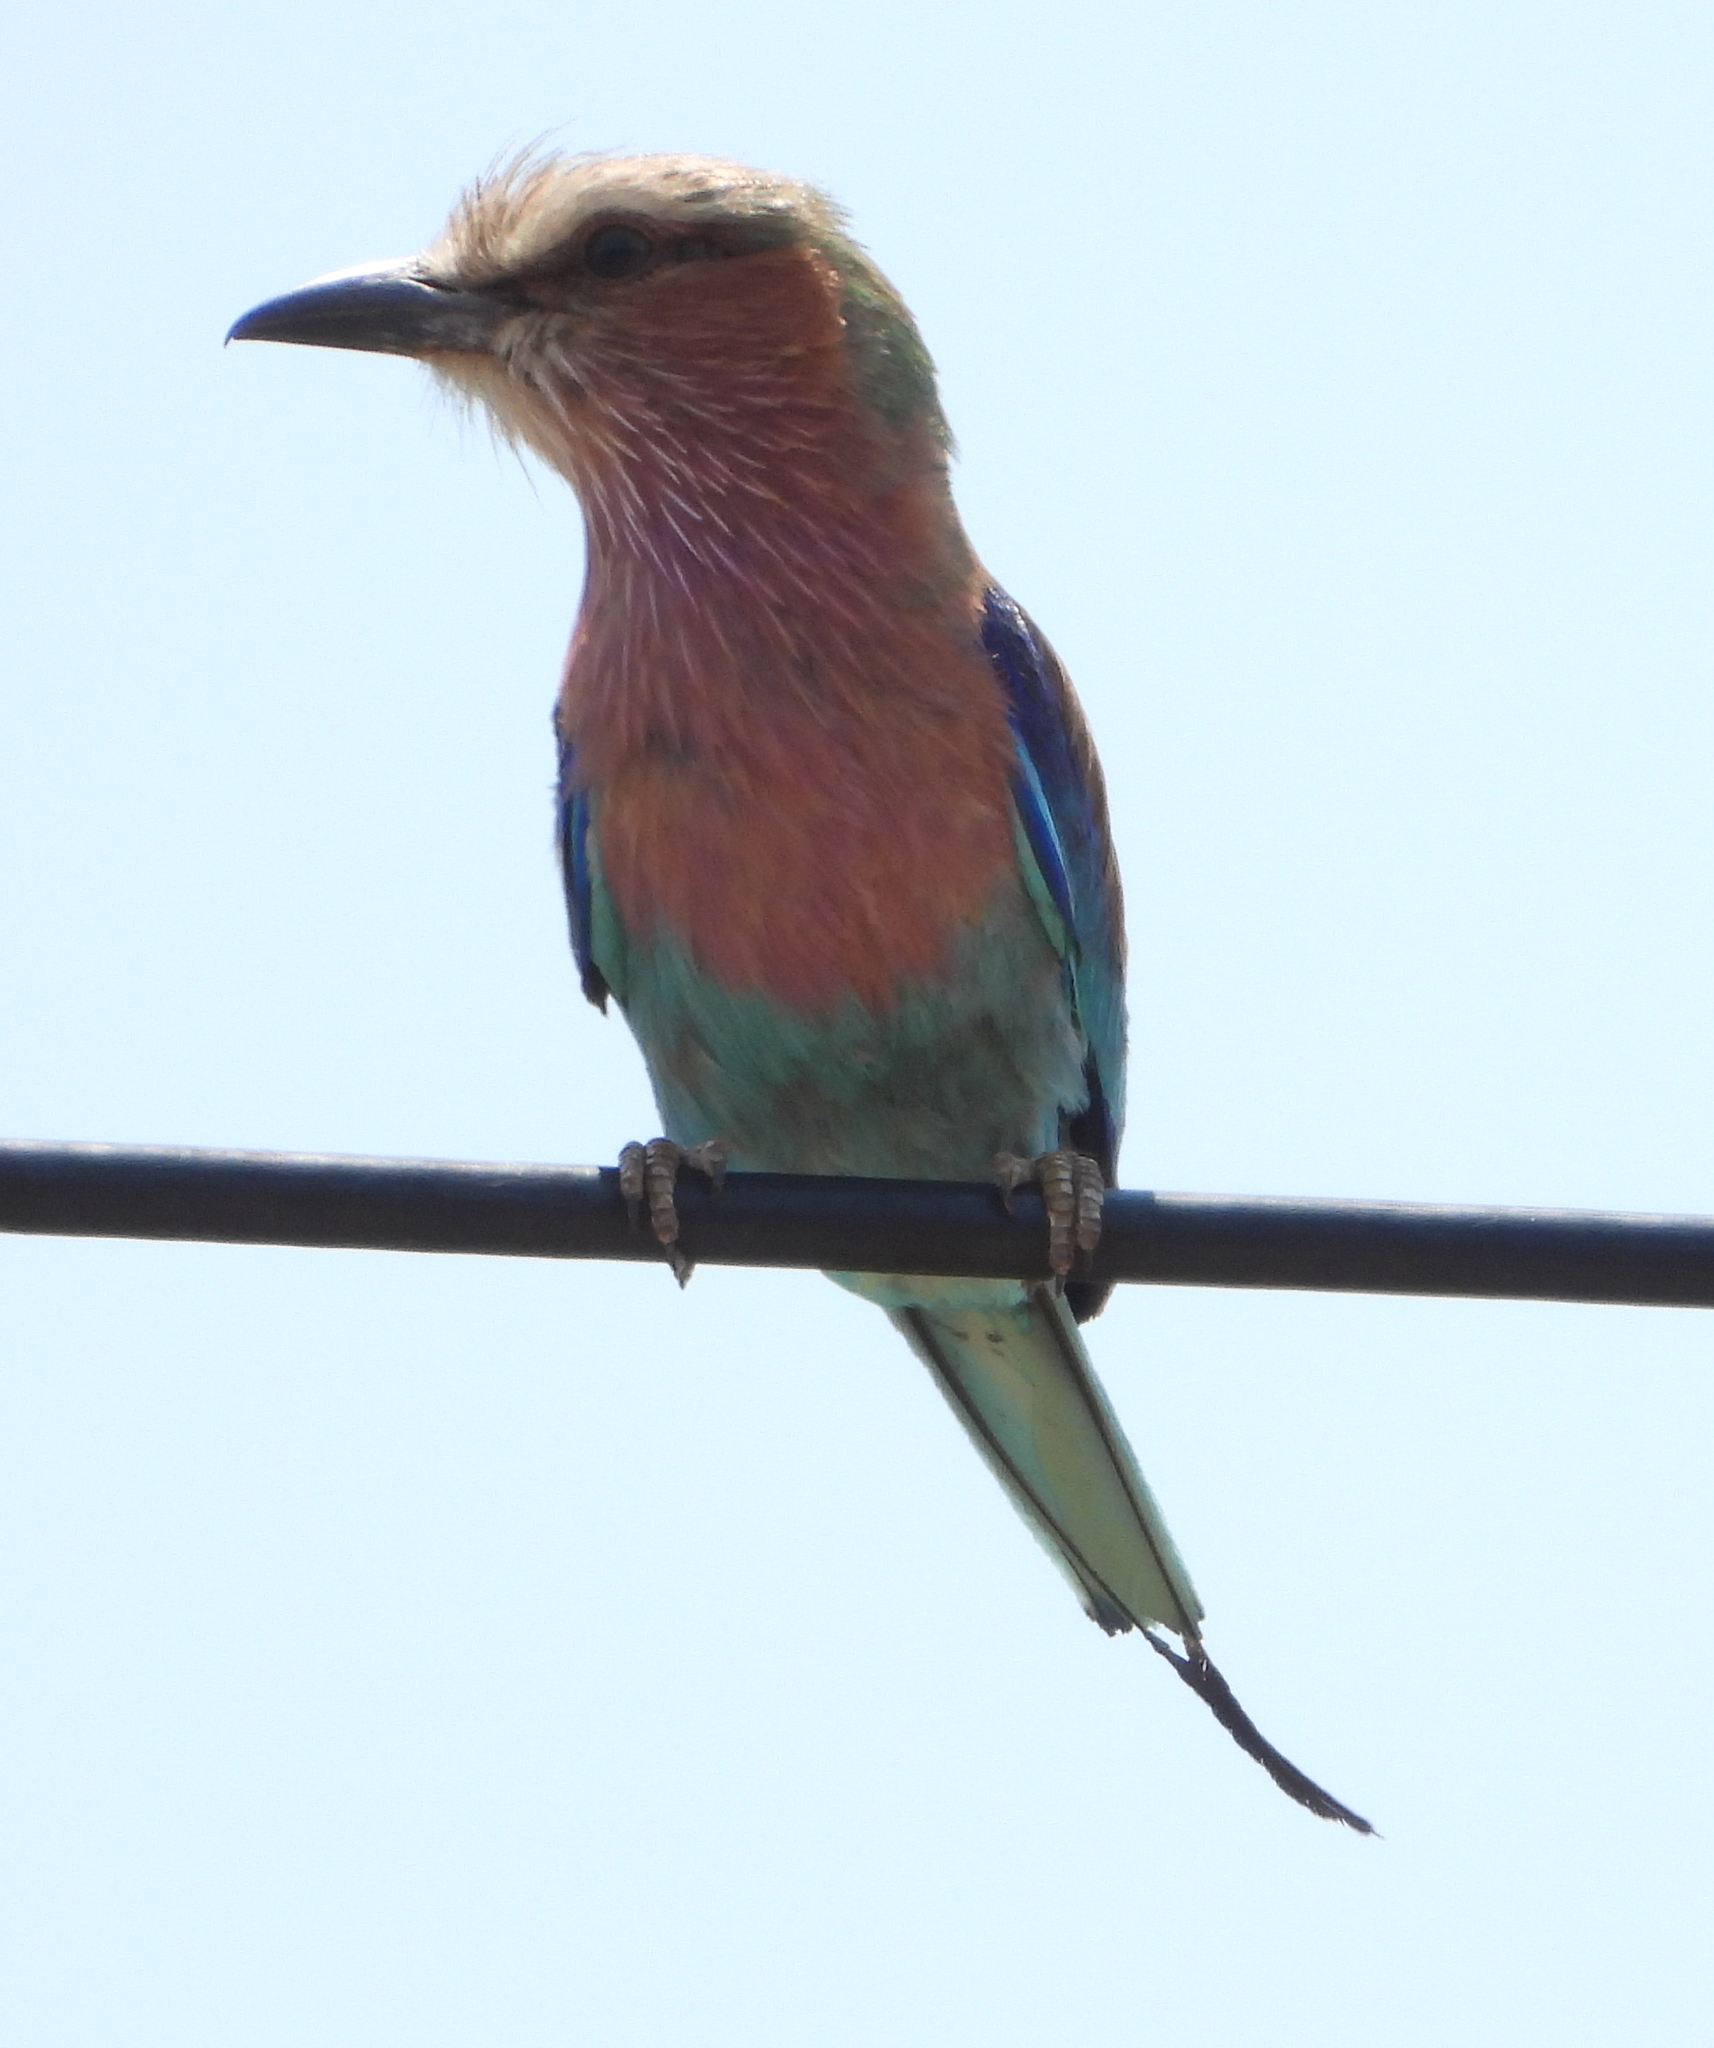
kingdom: Animalia
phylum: Chordata
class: Aves
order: Coraciiformes
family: Coraciidae
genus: Coracias
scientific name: Coracias caudatus
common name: Lilac-breasted roller
